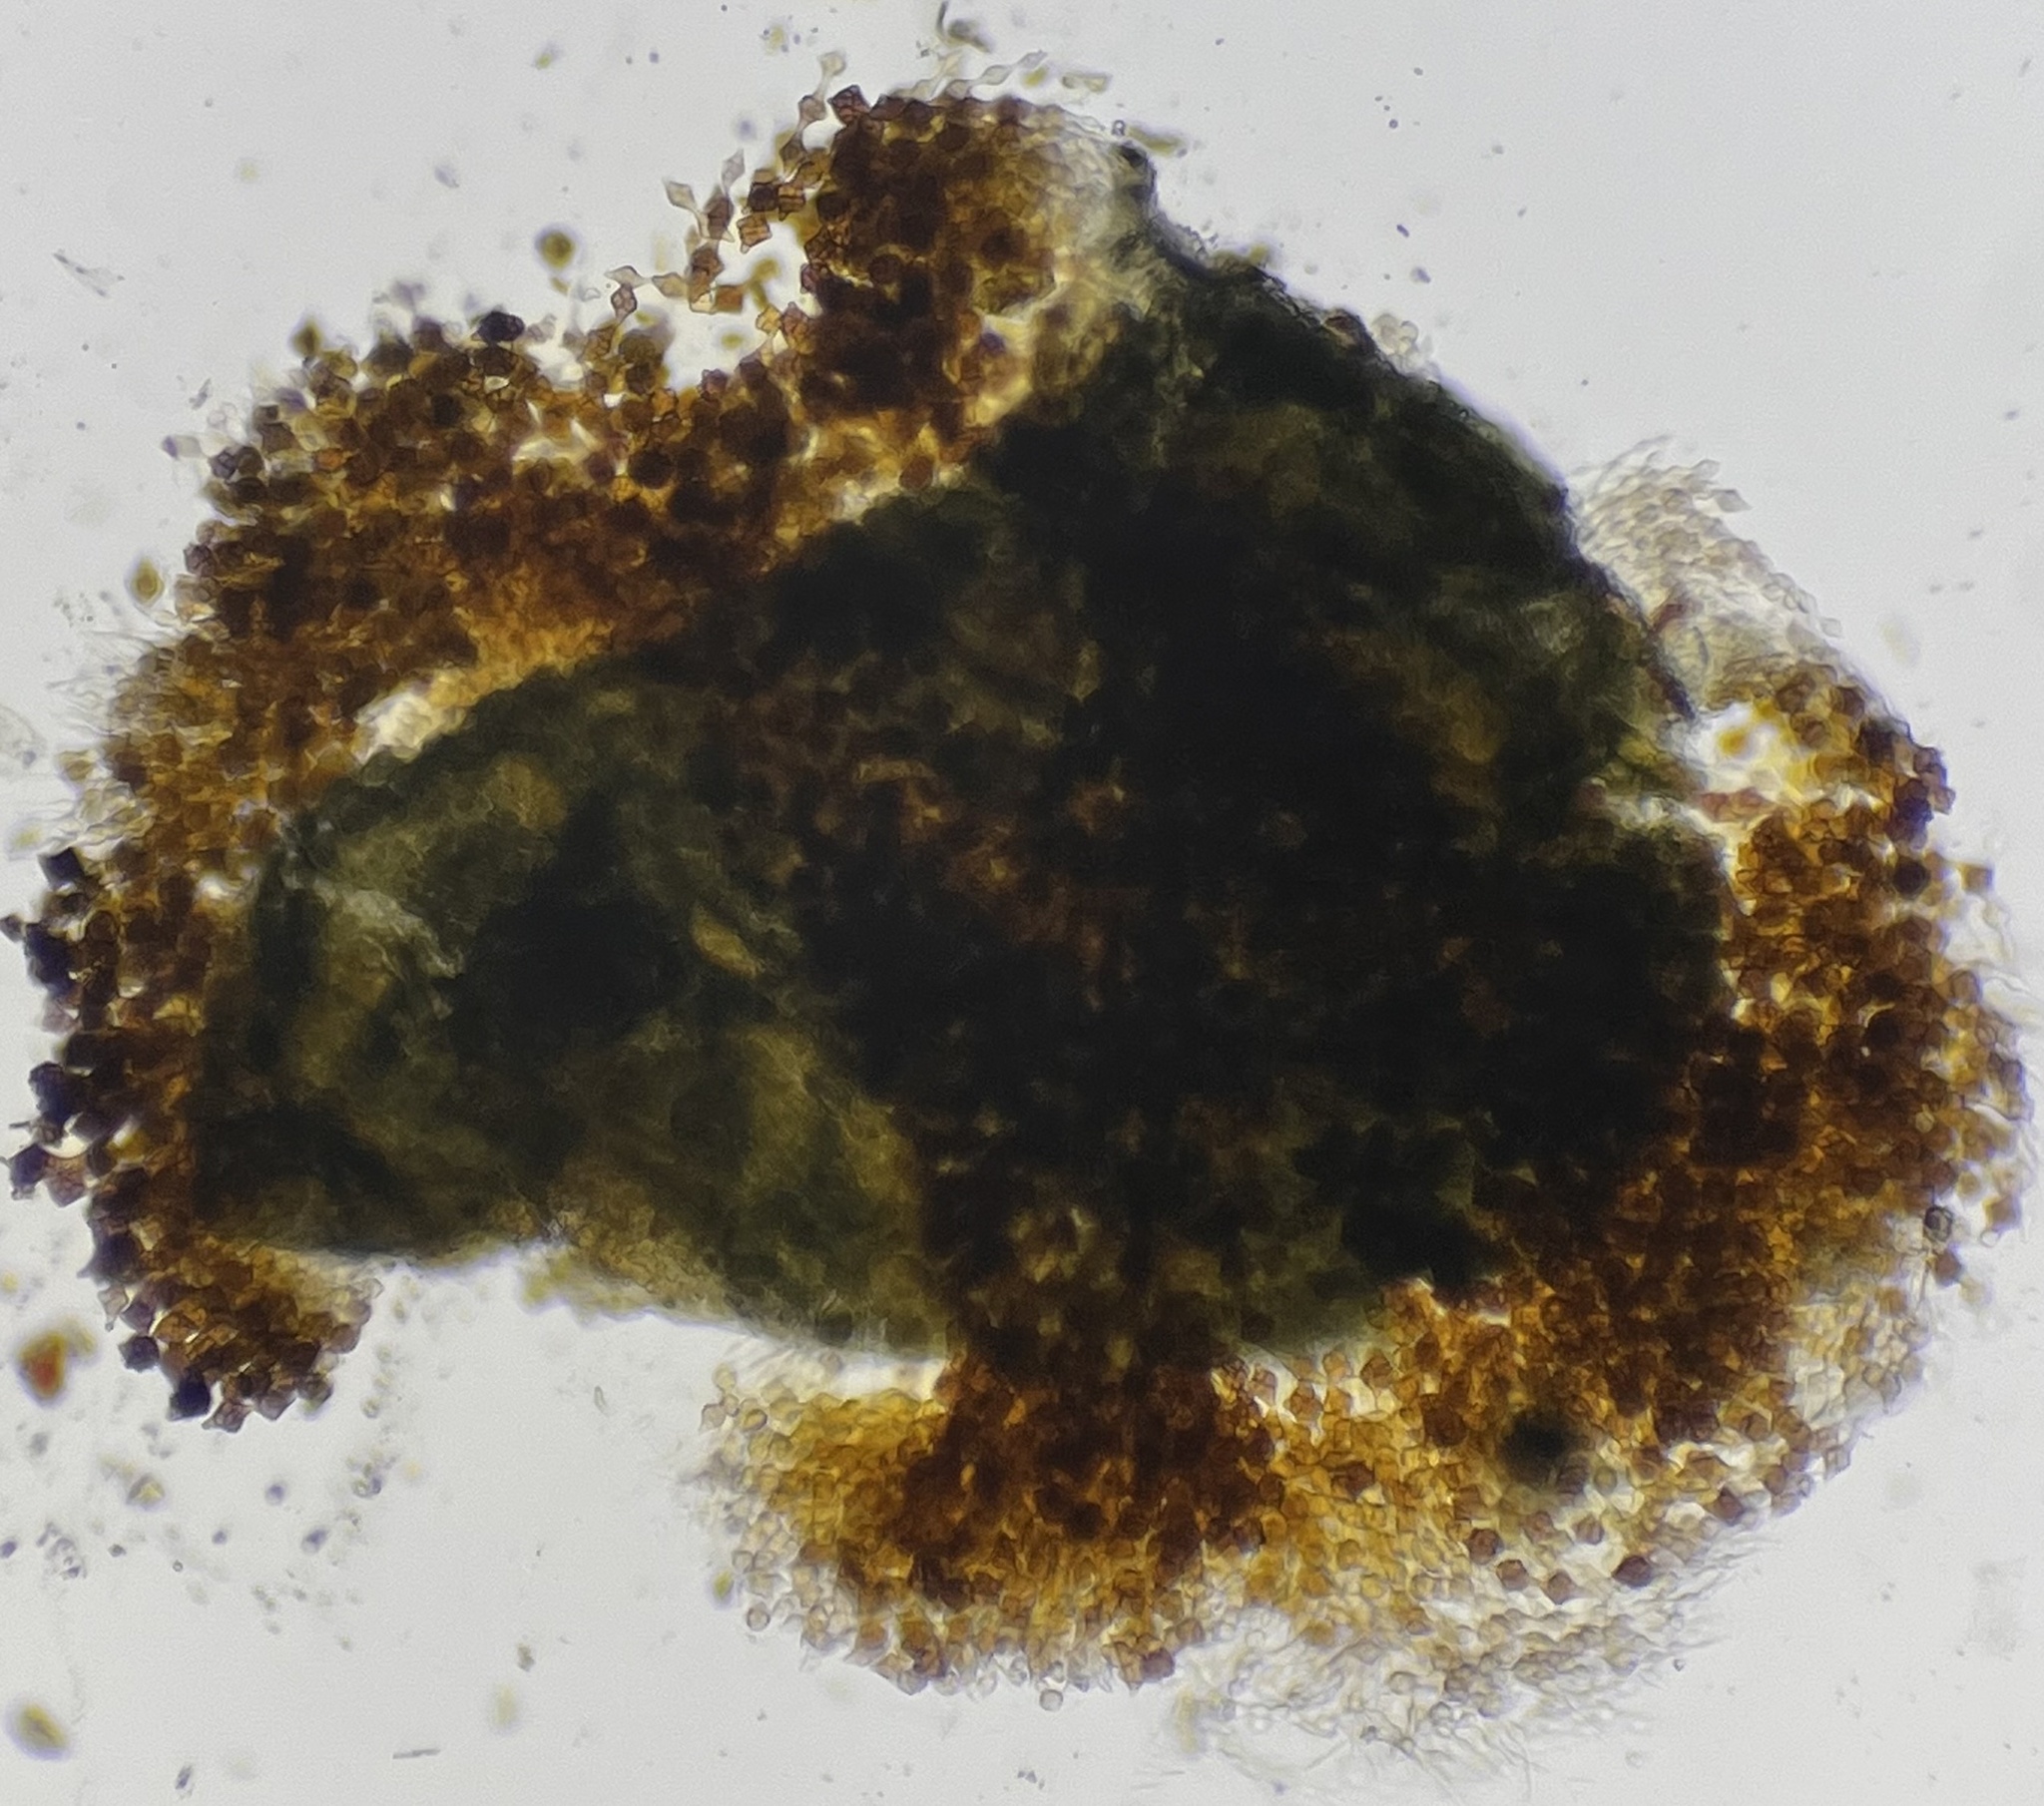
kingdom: Fungi
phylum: Ascomycota
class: Dothideomycetes
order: Pleosporales
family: Melanommataceae
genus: Phragmotrichum
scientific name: Phragmotrichum
